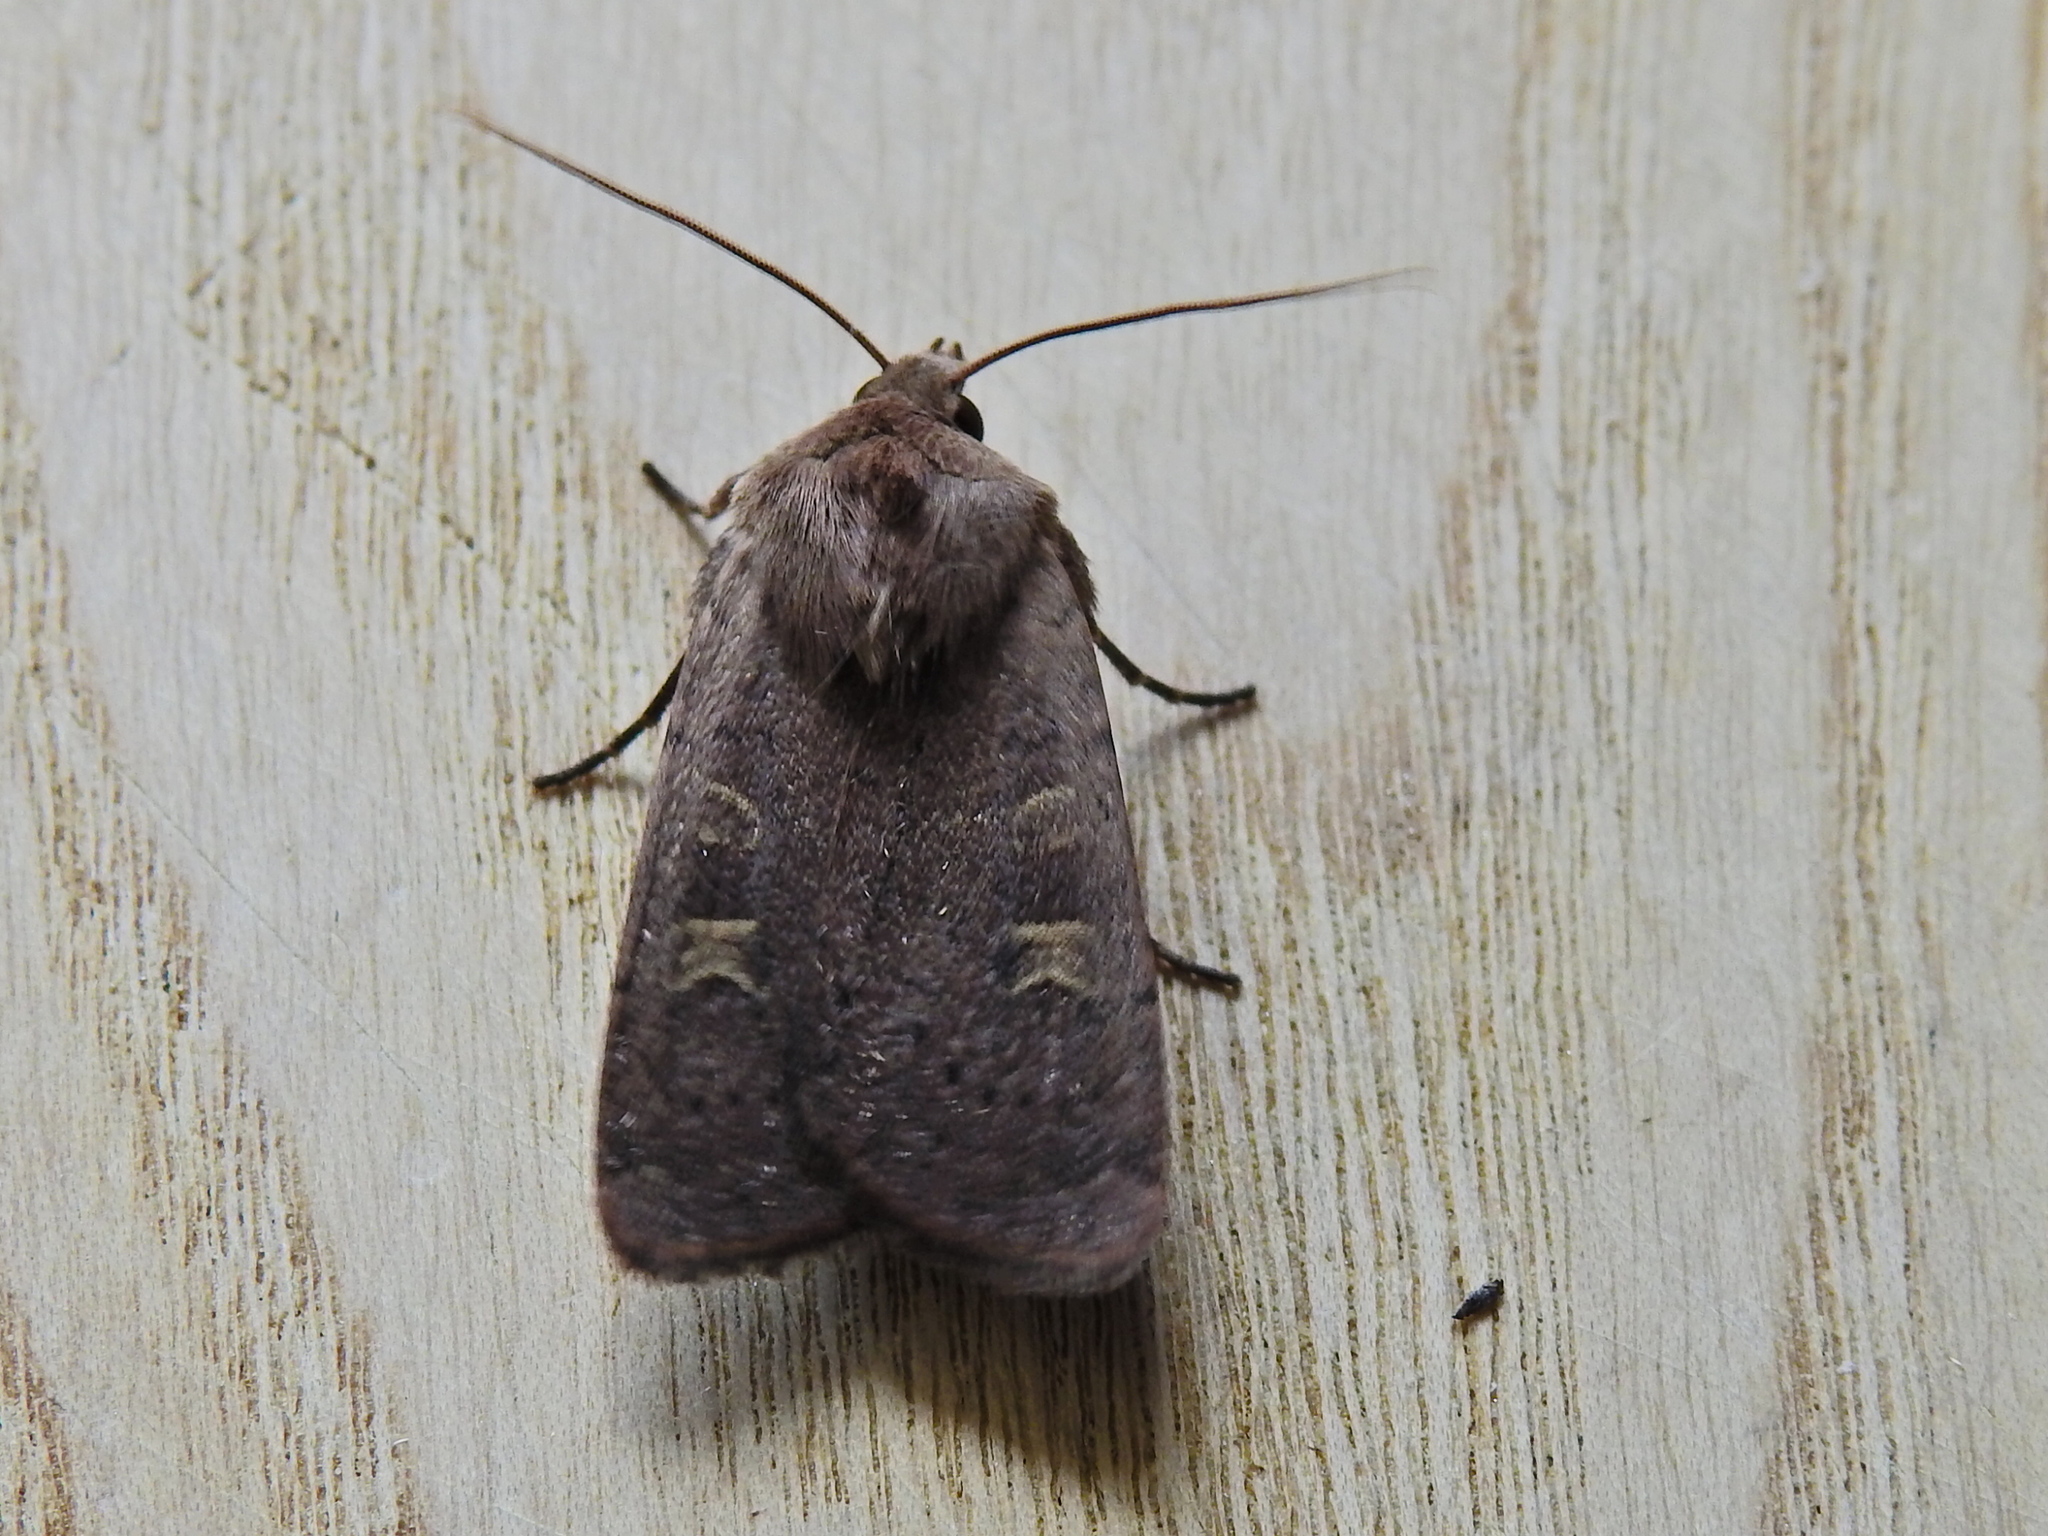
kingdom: Animalia
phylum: Arthropoda
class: Insecta
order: Lepidoptera
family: Noctuidae
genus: Xestia
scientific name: Xestia xanthographa
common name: Square-spot rustic
